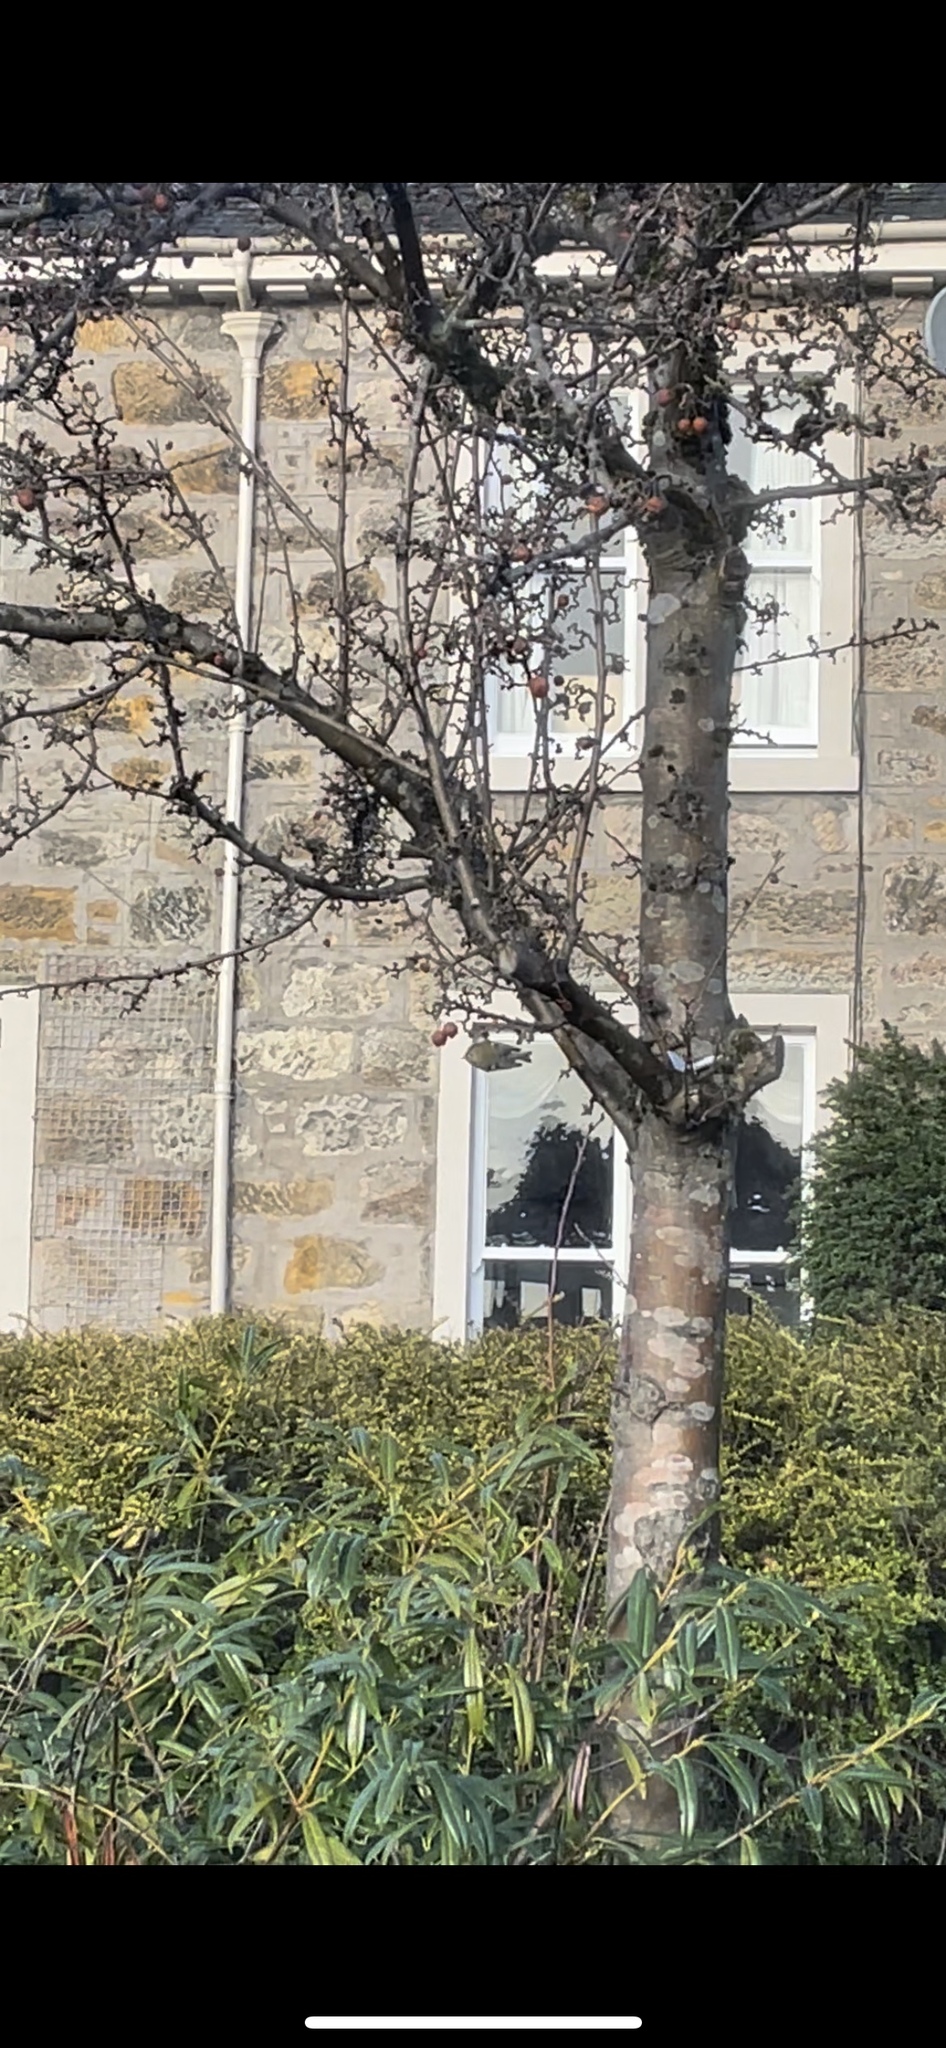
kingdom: Animalia
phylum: Chordata
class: Aves
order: Passeriformes
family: Regulidae
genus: Regulus
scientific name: Regulus regulus
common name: Goldcrest
